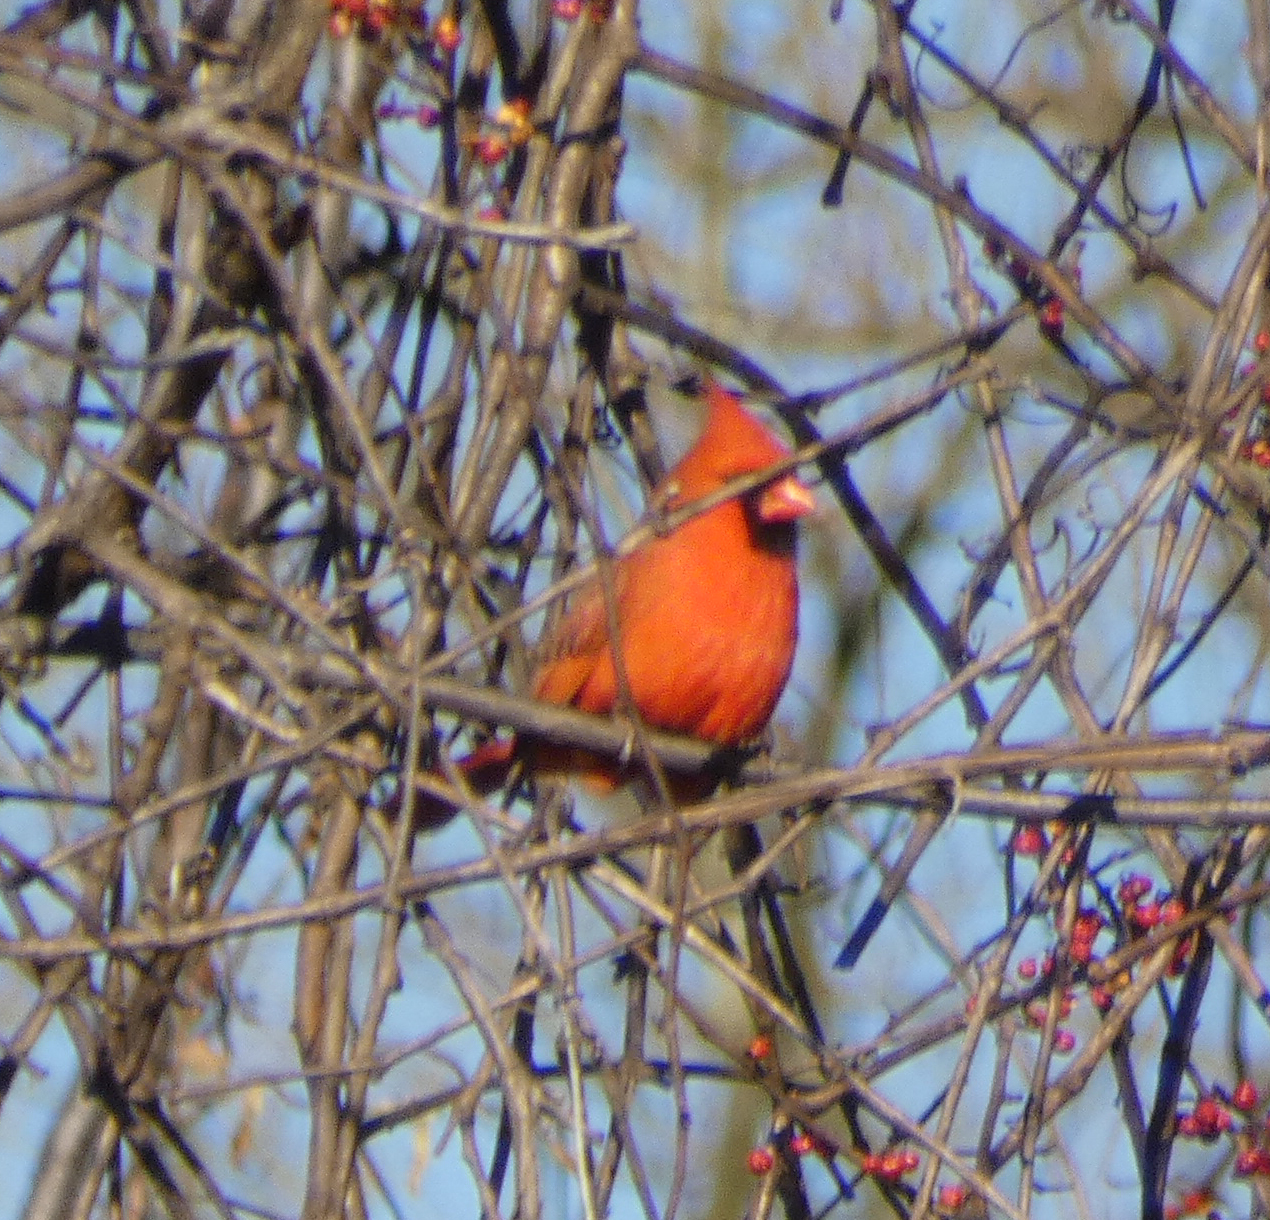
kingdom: Animalia
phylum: Chordata
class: Aves
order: Passeriformes
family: Cardinalidae
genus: Cardinalis
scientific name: Cardinalis cardinalis
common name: Northern cardinal
